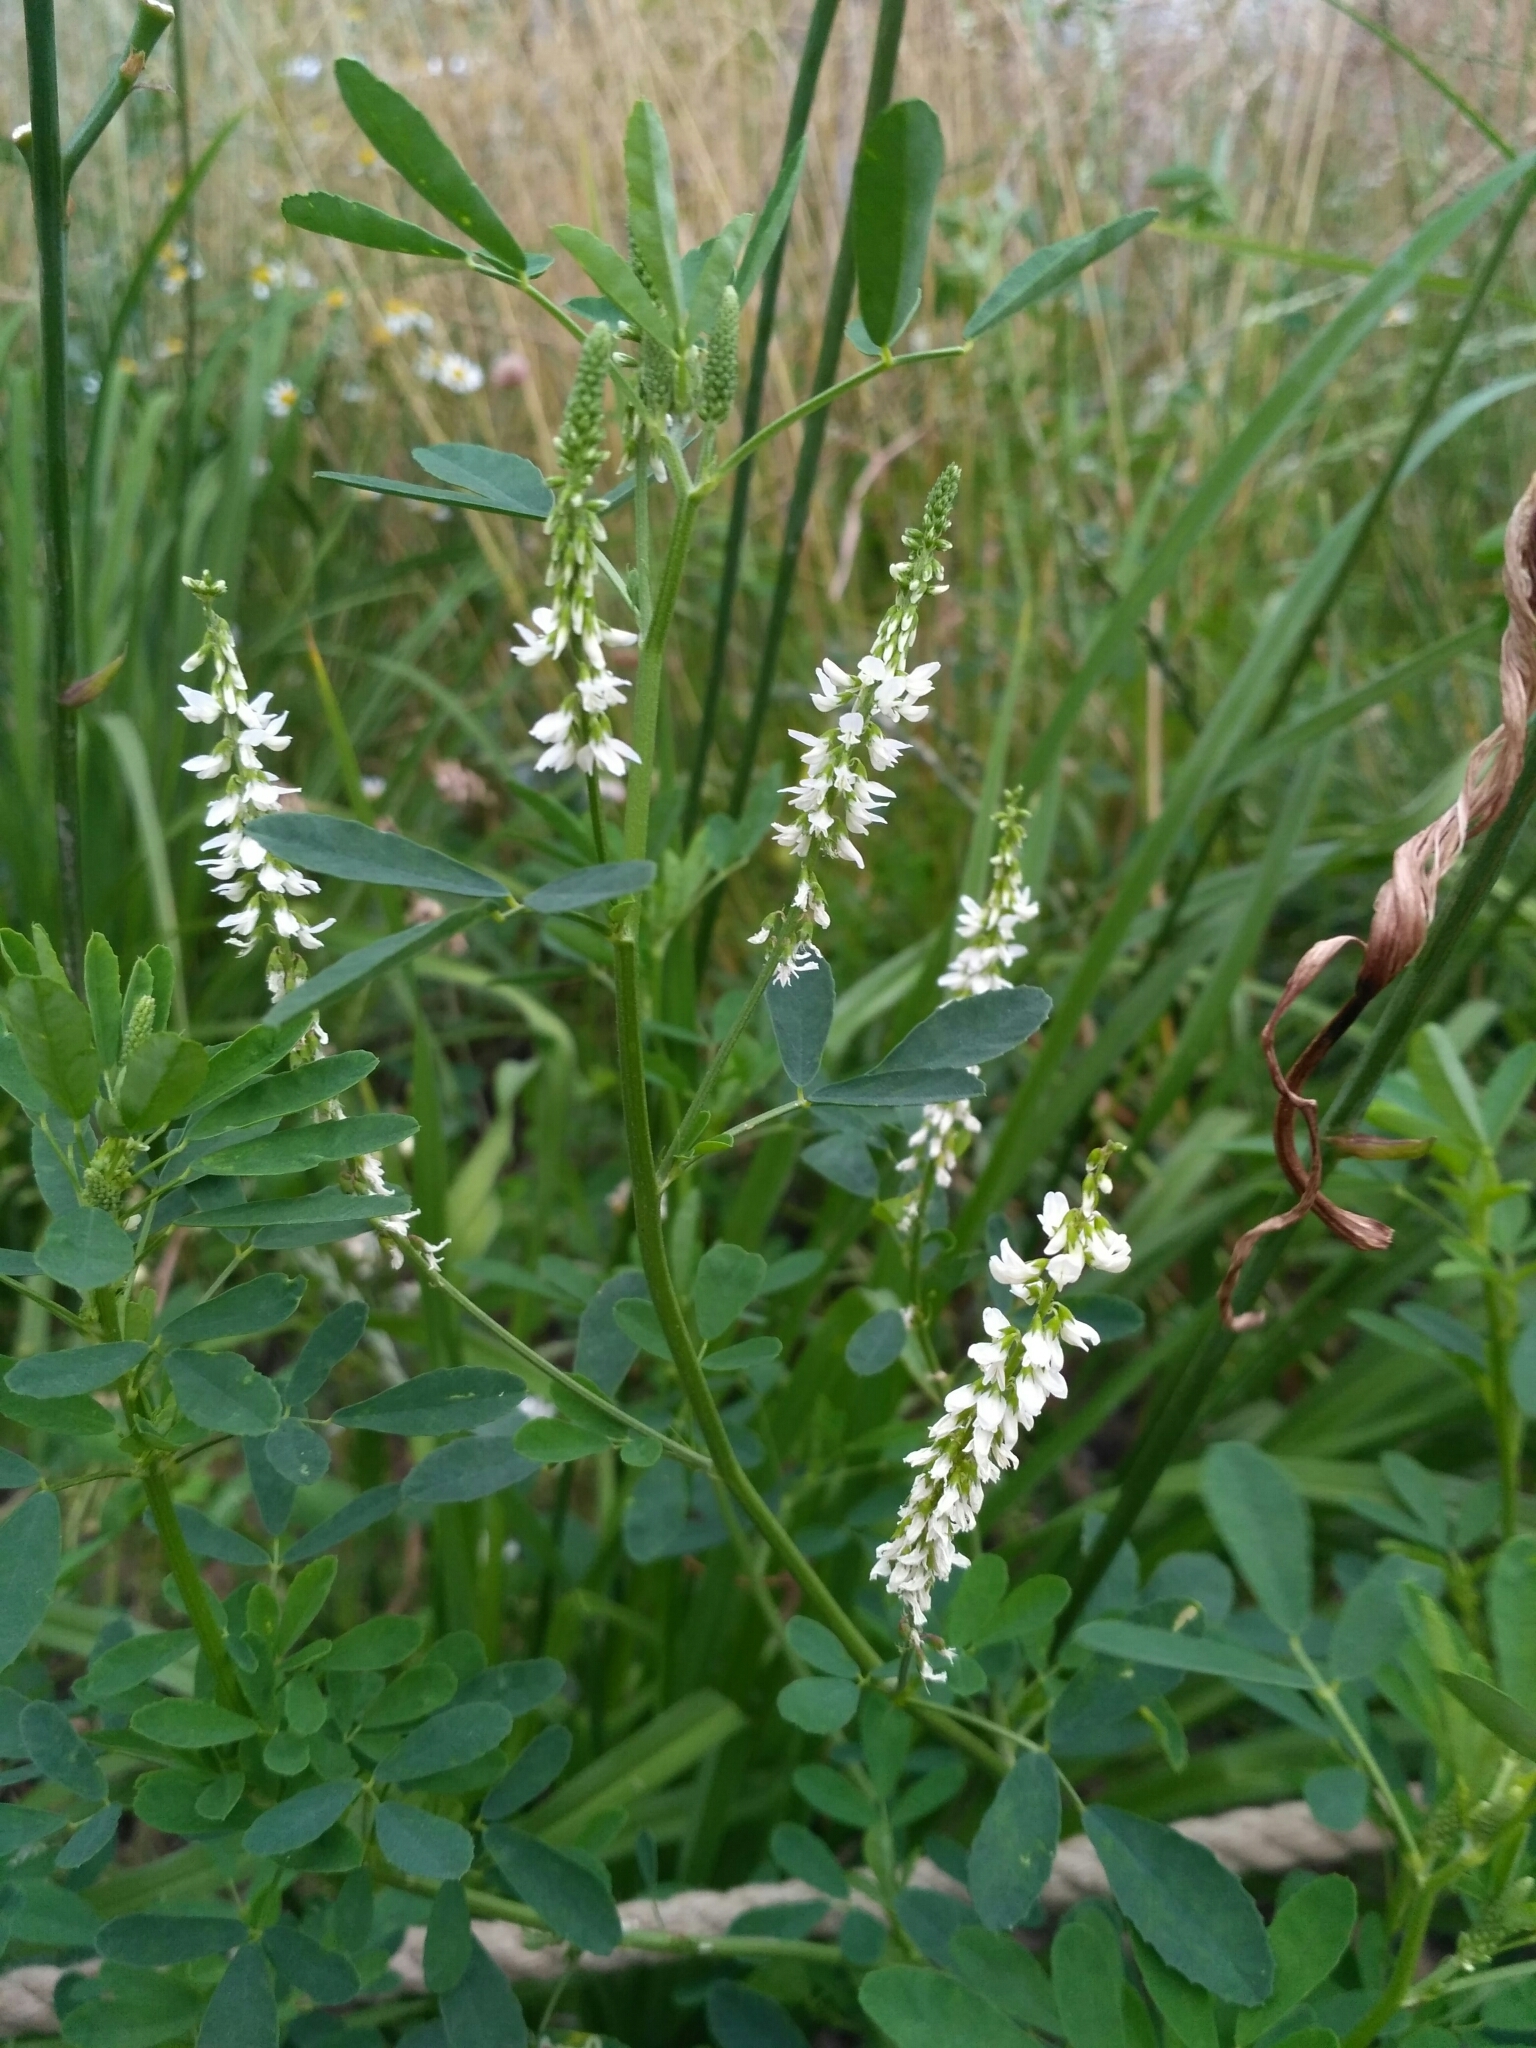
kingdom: Plantae
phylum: Tracheophyta
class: Magnoliopsida
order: Fabales
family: Fabaceae
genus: Melilotus
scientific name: Melilotus albus
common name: White melilot
